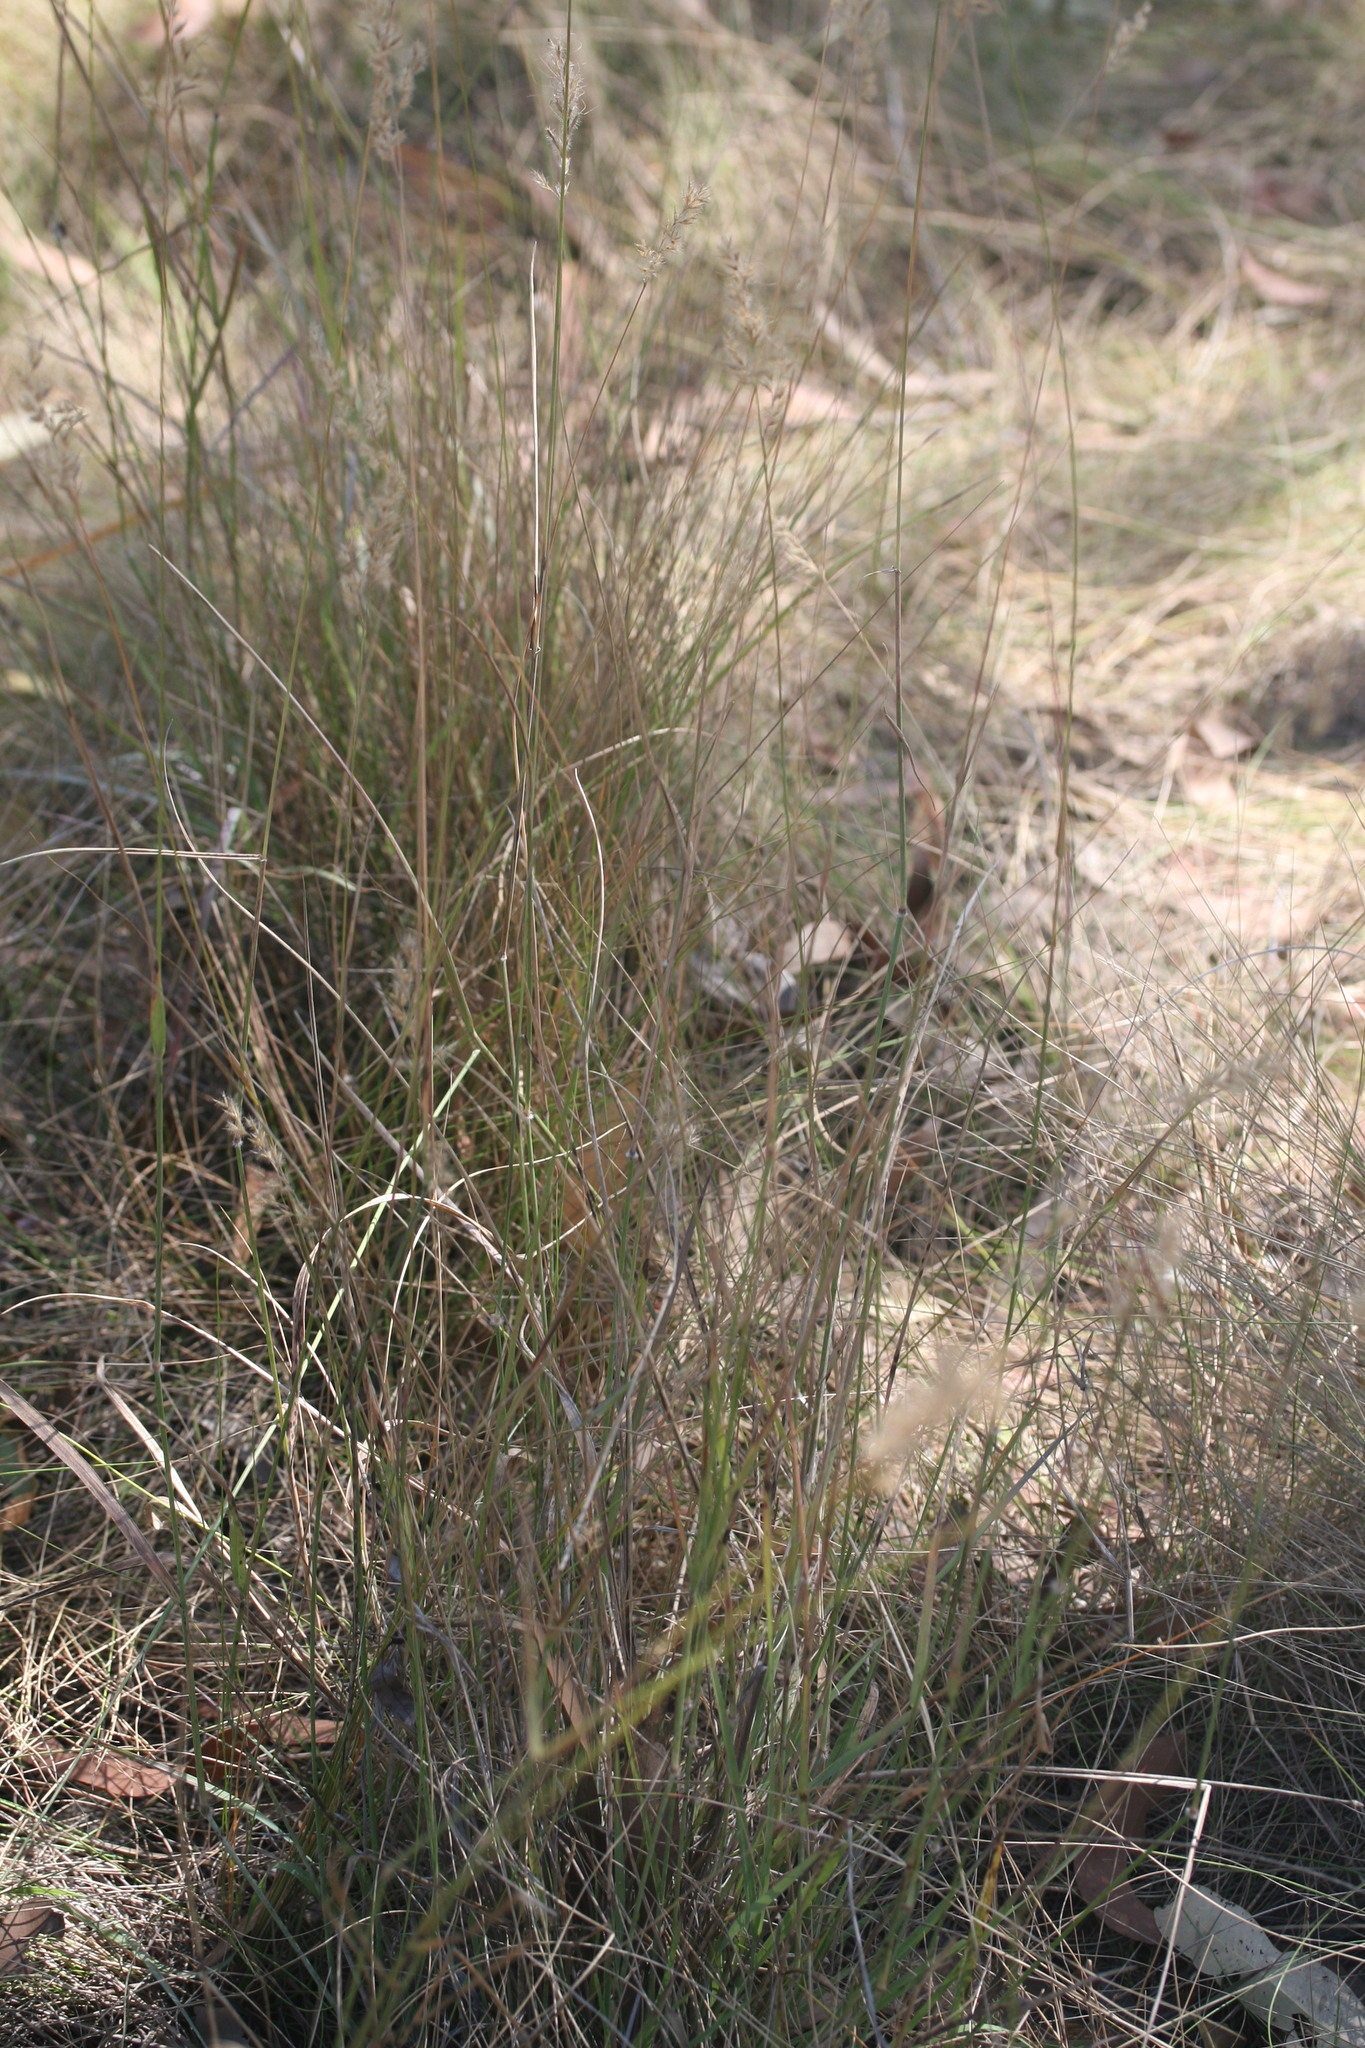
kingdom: Plantae
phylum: Tracheophyta
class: Liliopsida
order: Poales
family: Poaceae
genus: Eriachne
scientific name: Eriachne sulcata
